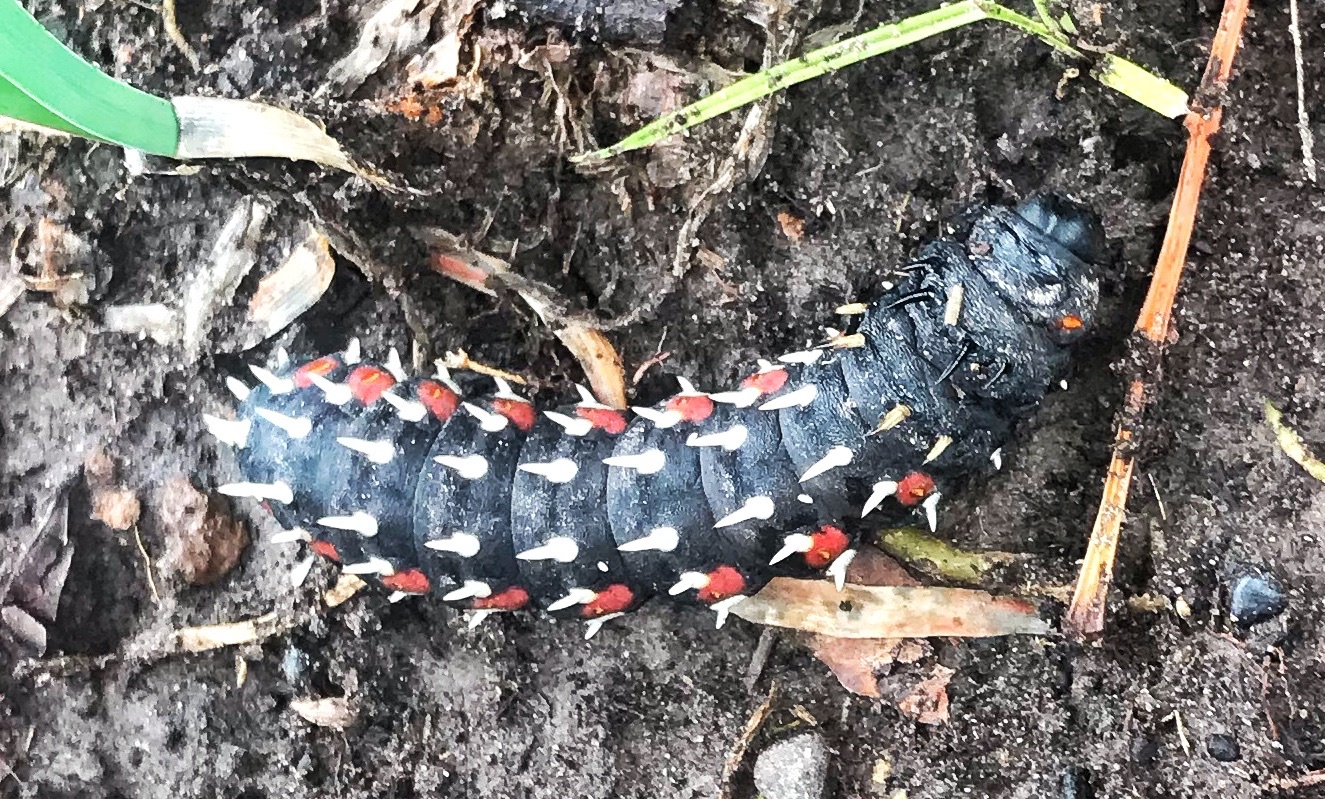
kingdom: Animalia
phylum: Arthropoda
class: Insecta
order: Lepidoptera
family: Saturniidae
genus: Bunaea
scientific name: Bunaea alcinoe
